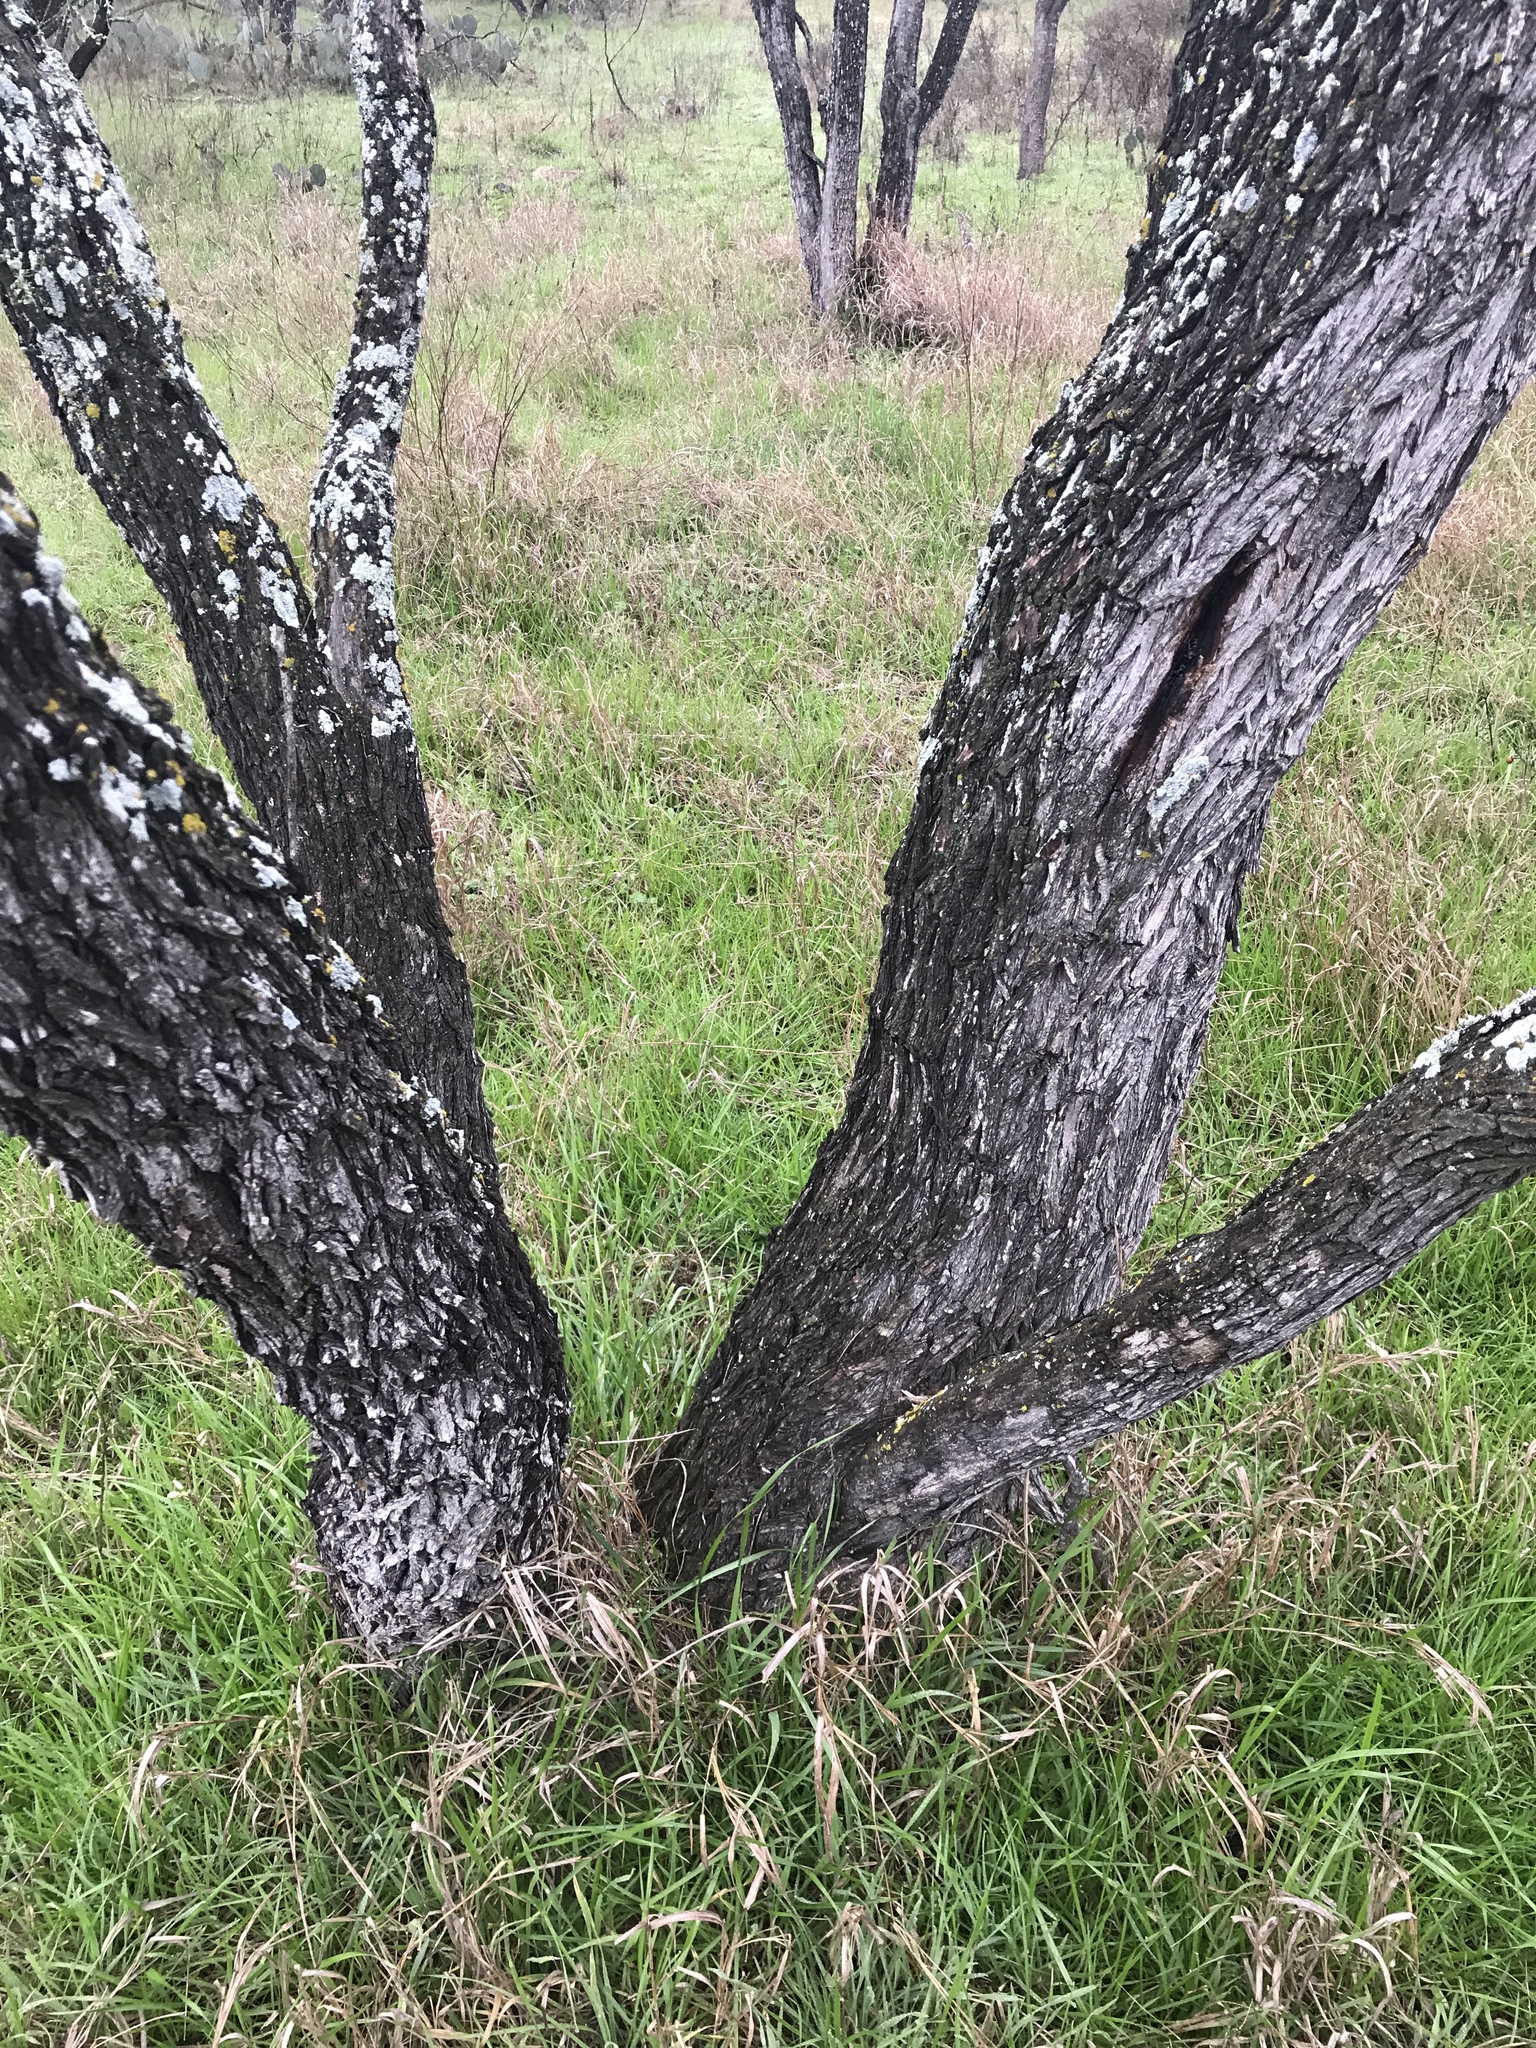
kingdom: Plantae
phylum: Tracheophyta
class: Magnoliopsida
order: Fabales
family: Fabaceae
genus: Prosopis
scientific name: Prosopis glandulosa
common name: Honey mesquite
